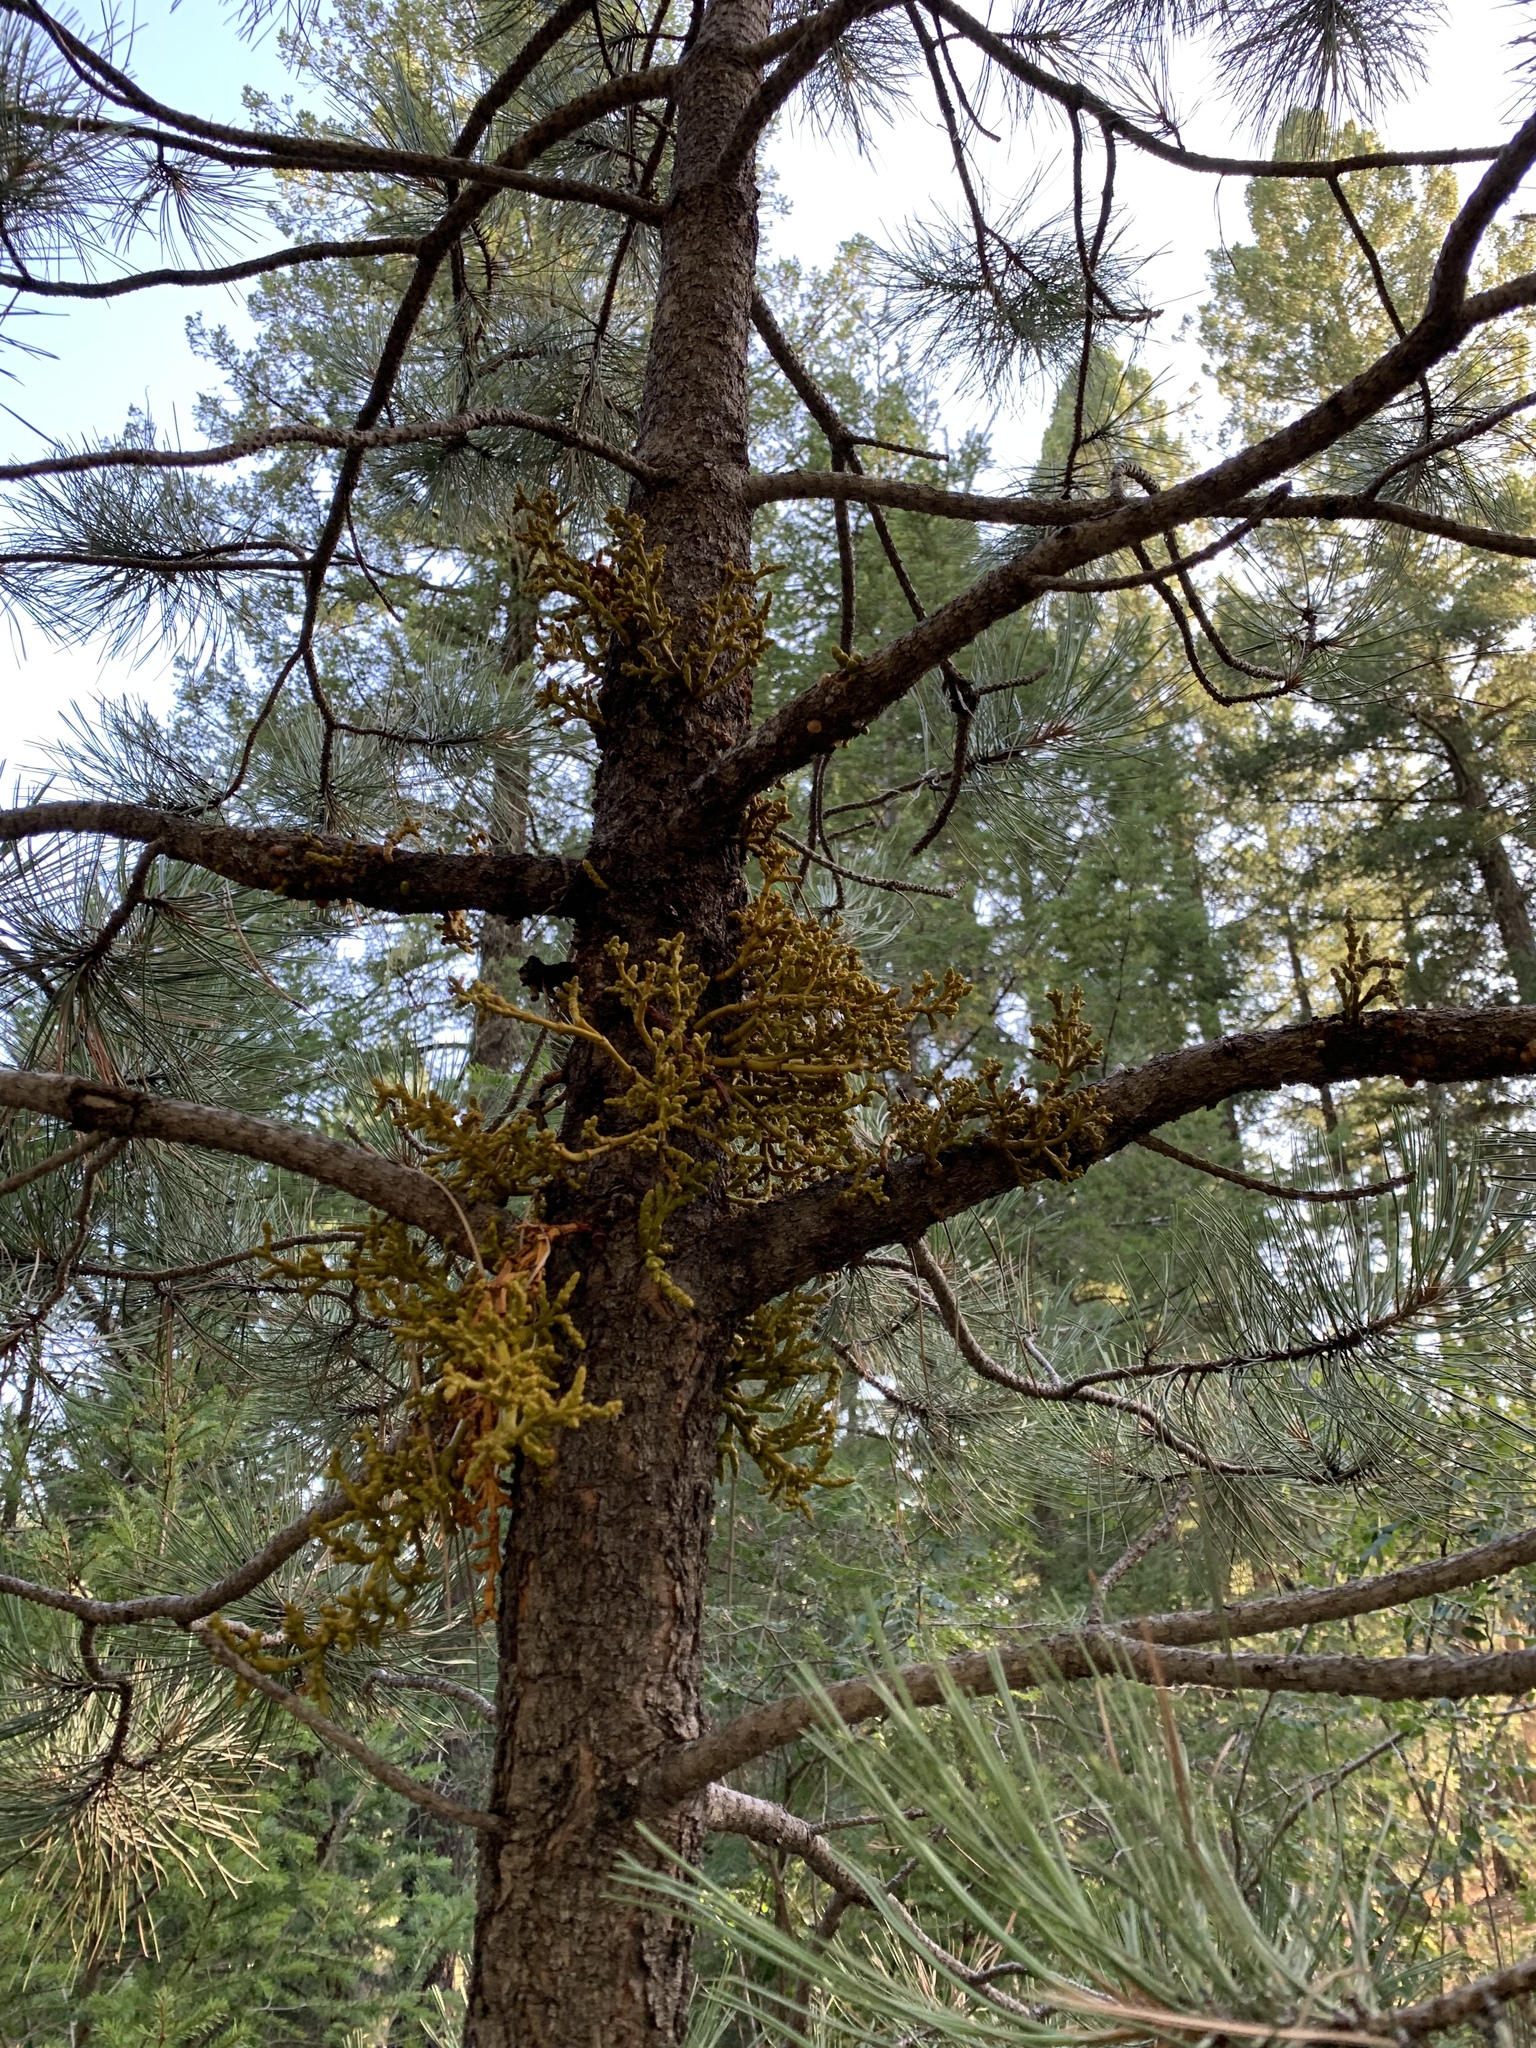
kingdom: Plantae
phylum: Tracheophyta
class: Magnoliopsida
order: Santalales
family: Viscaceae
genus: Arceuthobium
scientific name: Arceuthobium vaginatum
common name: Southwestern dwarf-mistletoe
